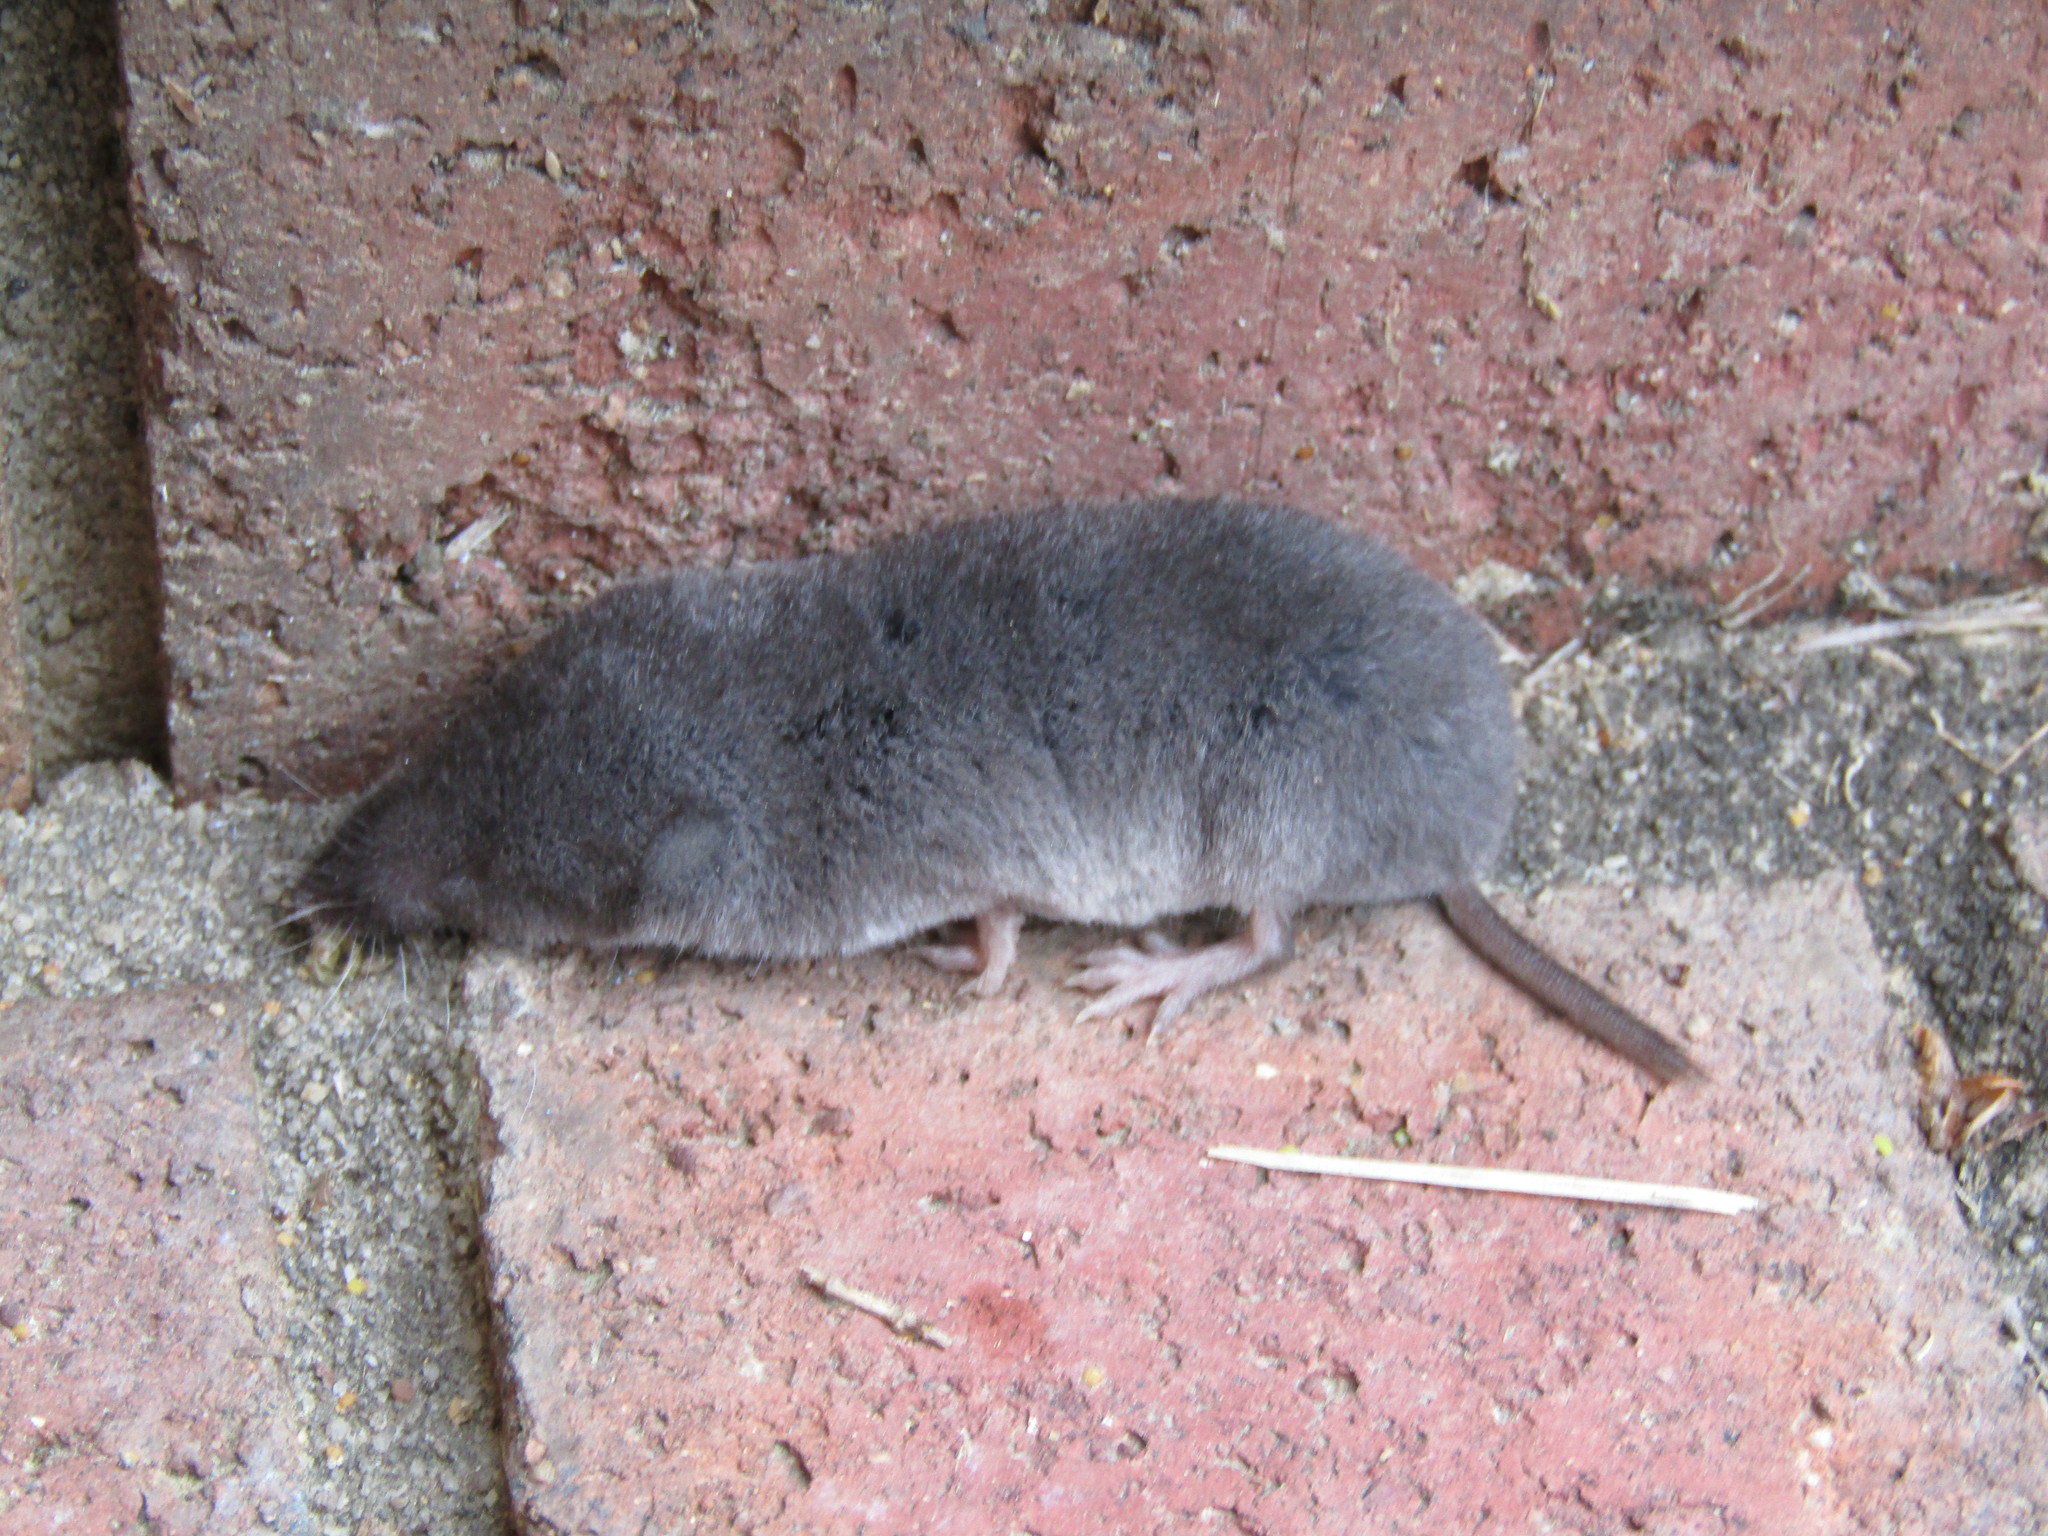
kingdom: Animalia
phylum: Chordata
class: Mammalia
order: Soricomorpha
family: Soricidae
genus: Blarina
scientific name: Blarina carolinensis
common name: Southern short-tailed shrew
